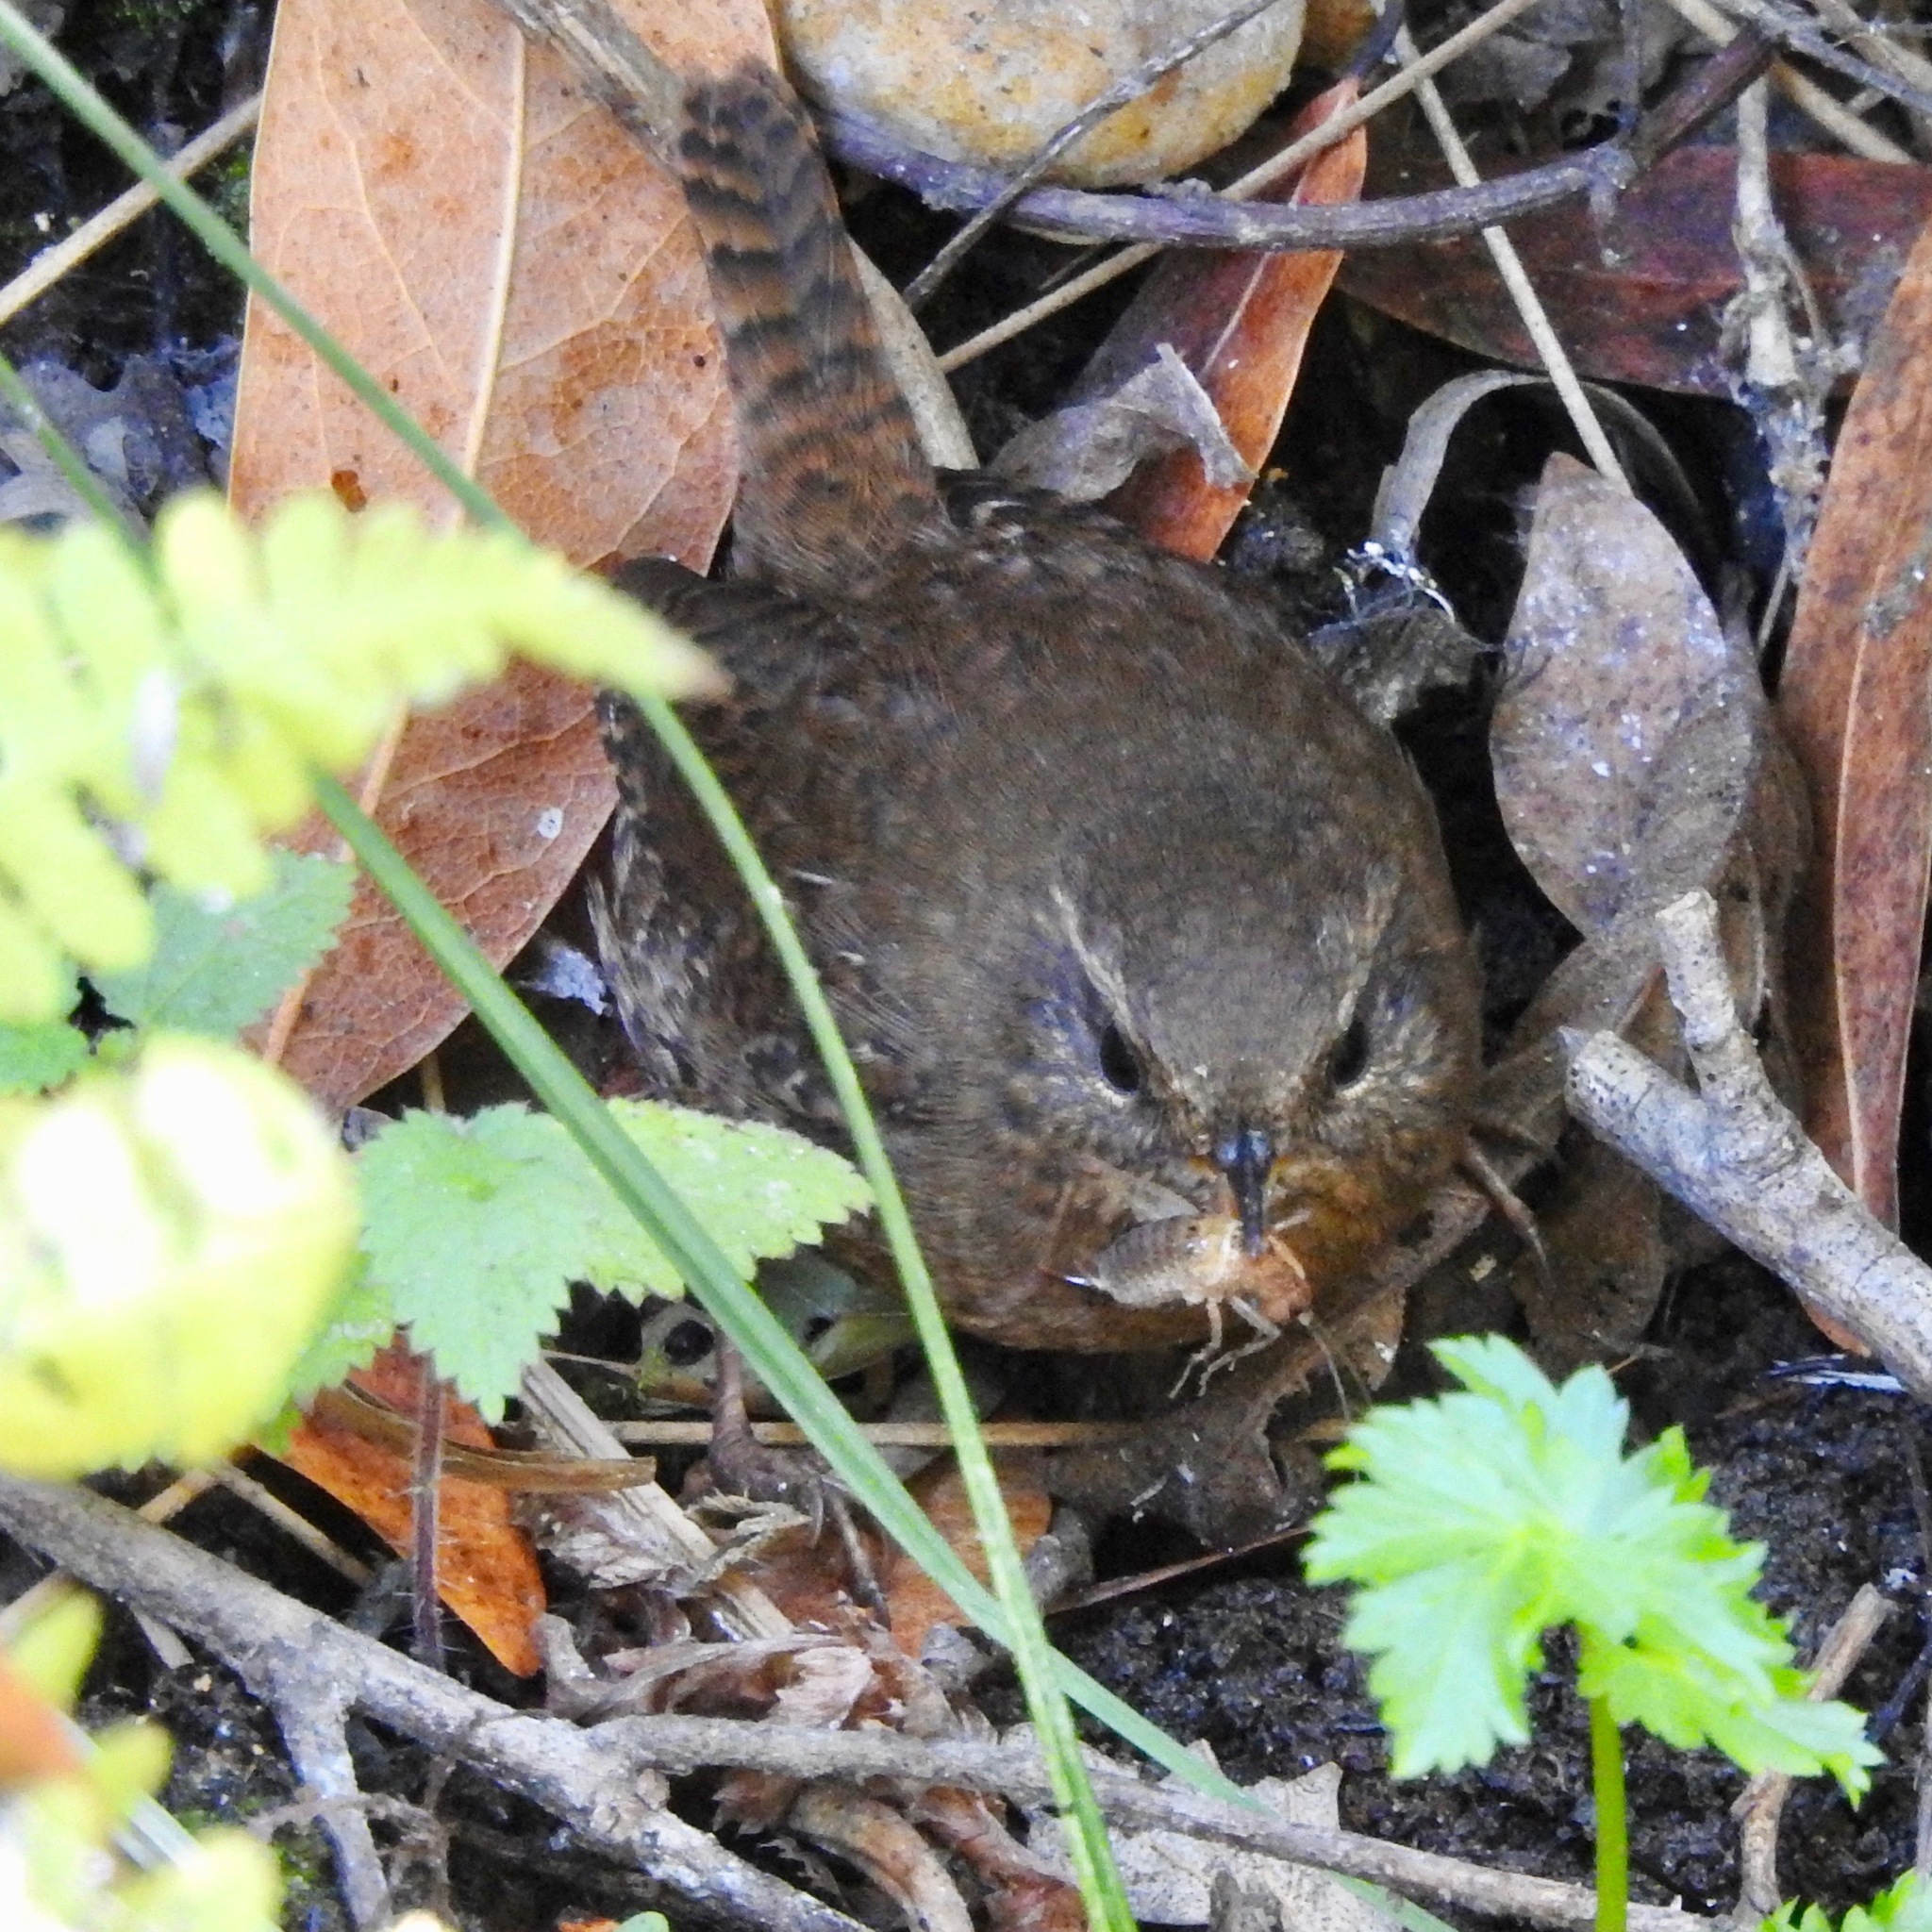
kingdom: Animalia
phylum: Chordata
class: Aves
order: Passeriformes
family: Troglodytidae
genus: Troglodytes
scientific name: Troglodytes pacificus
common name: Pacific wren
